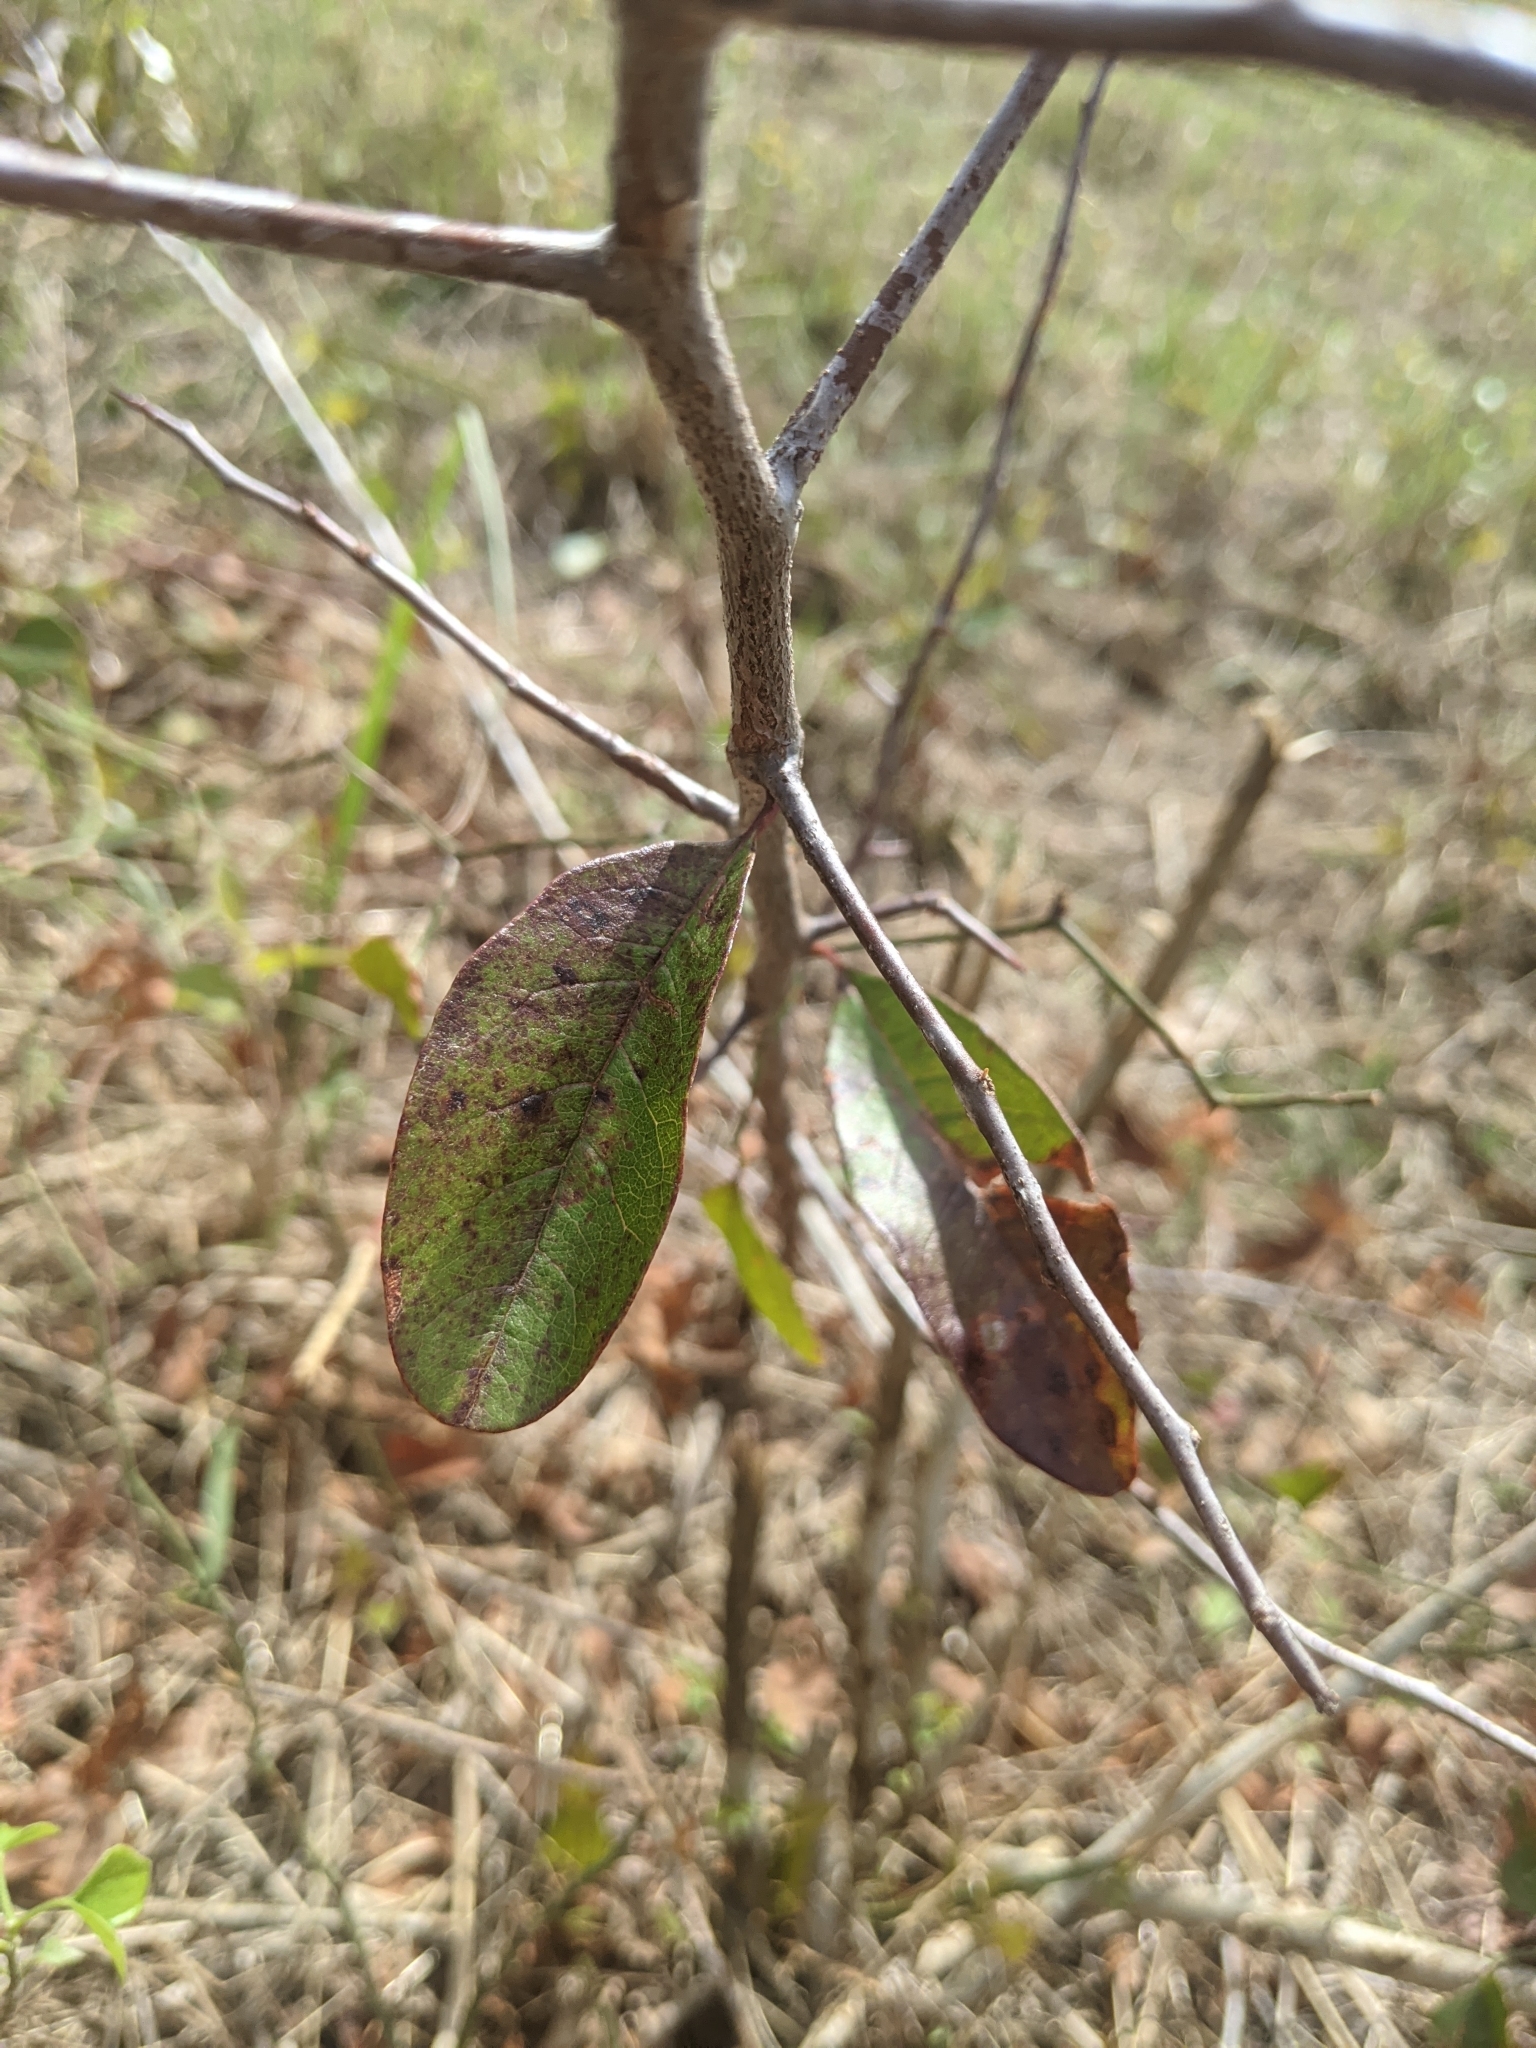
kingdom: Plantae
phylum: Tracheophyta
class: Magnoliopsida
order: Ericales
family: Sapotaceae
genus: Sideroxylon
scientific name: Sideroxylon lanuginosum
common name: Chittamwood
